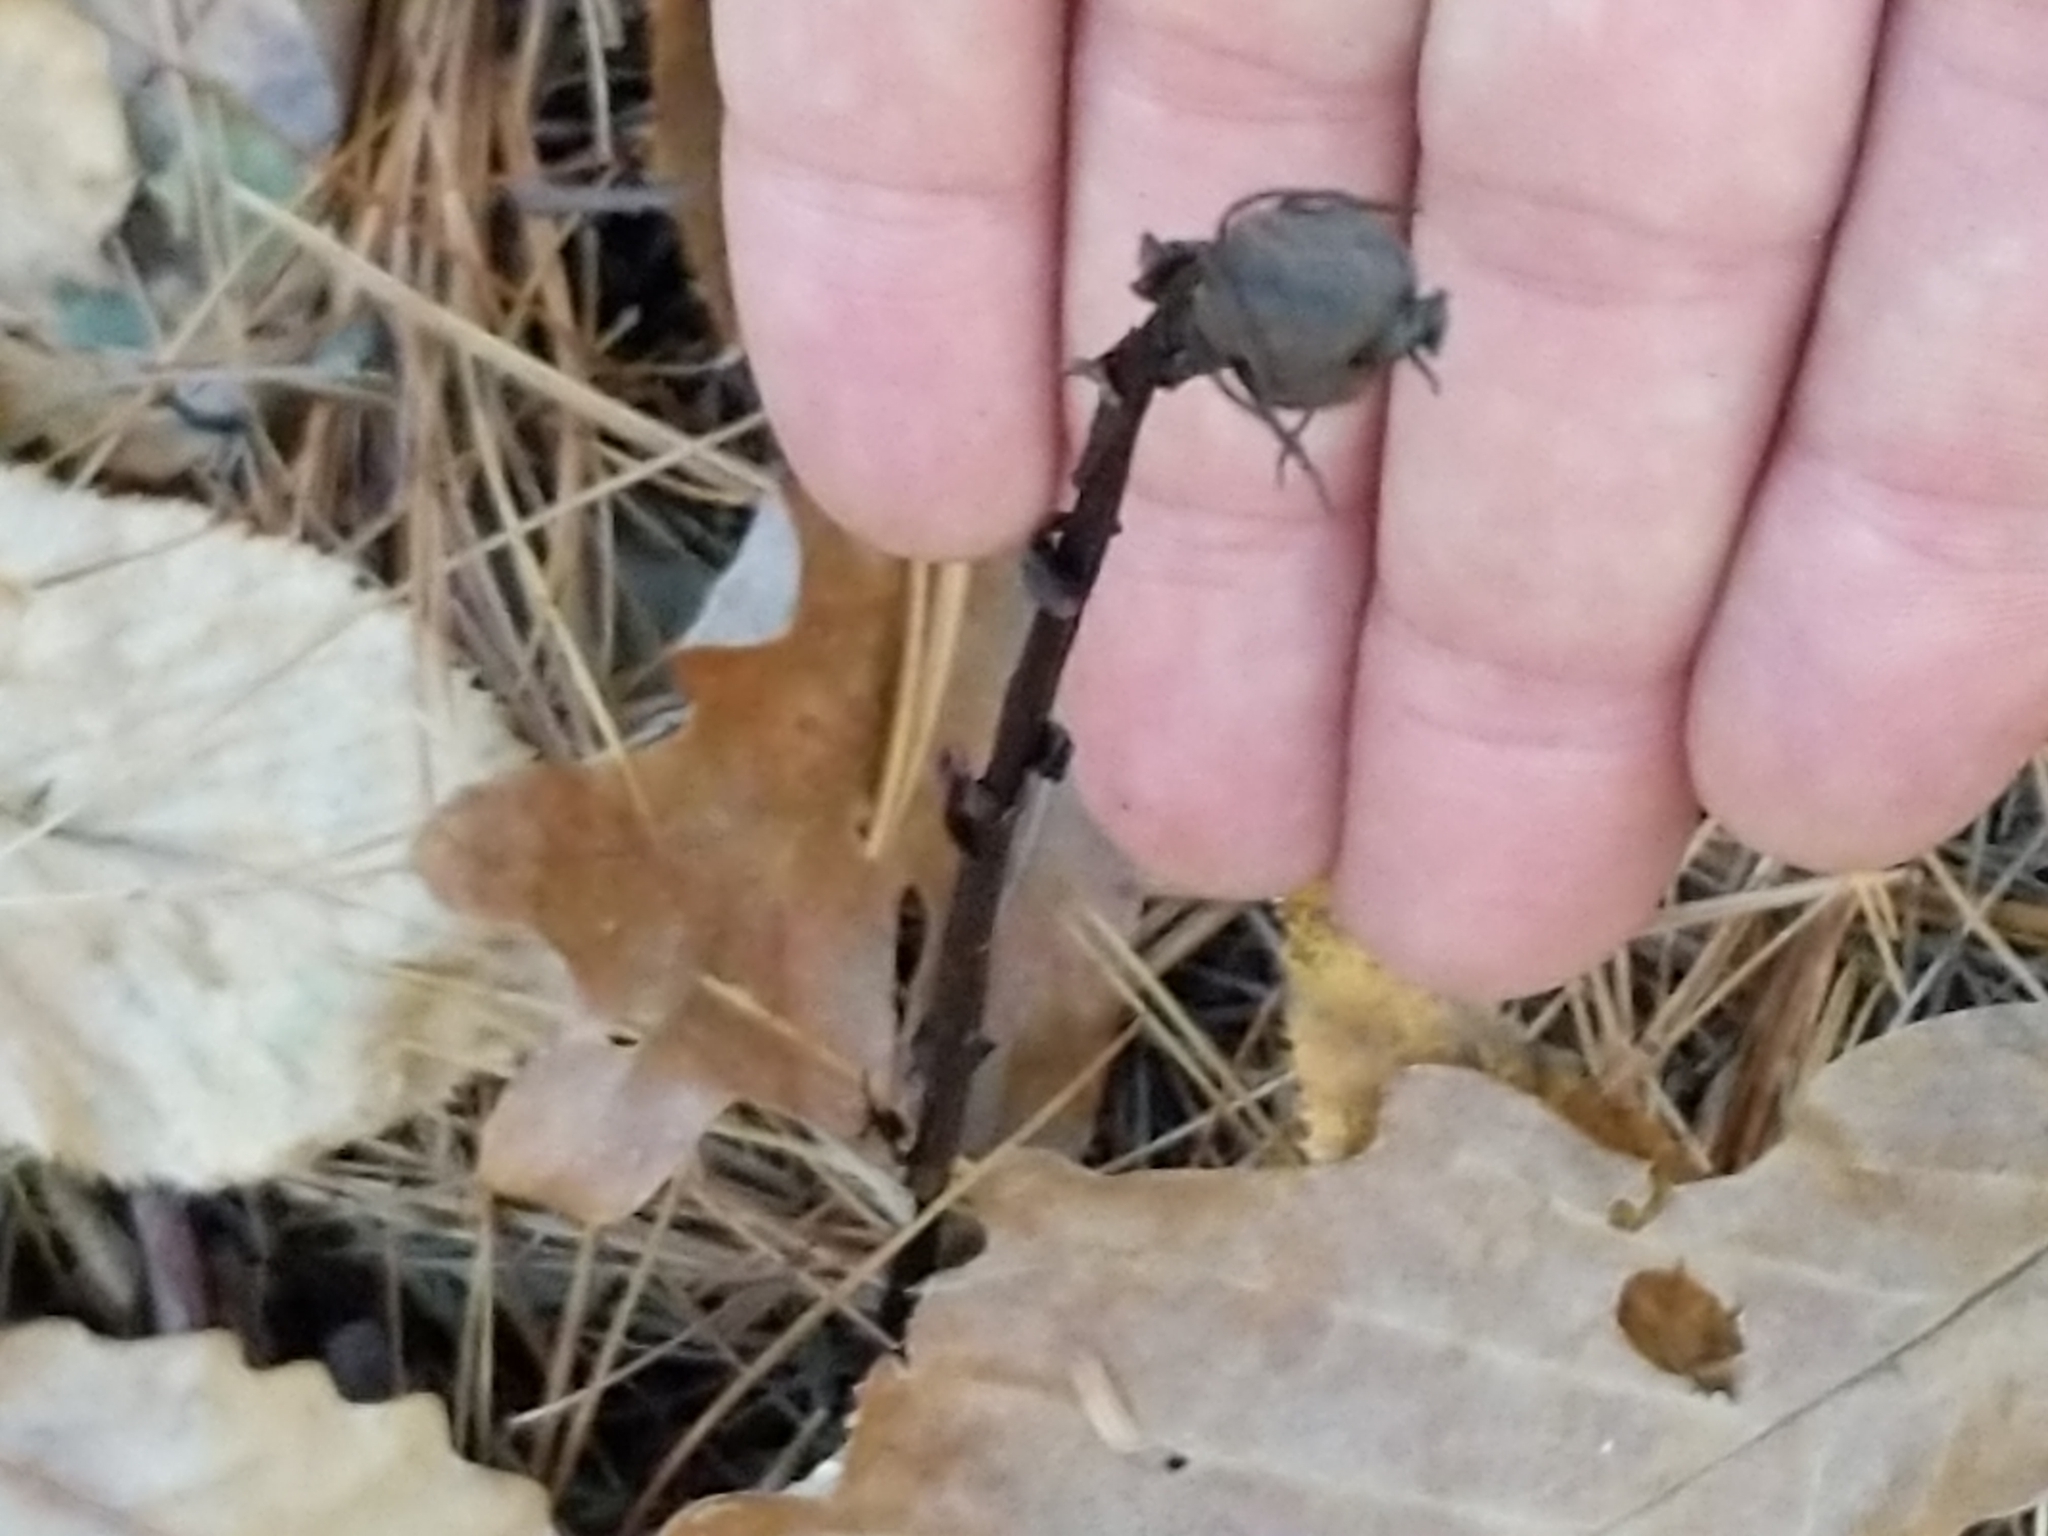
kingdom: Plantae
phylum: Tracheophyta
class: Magnoliopsida
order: Ericales
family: Ericaceae
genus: Monotropa
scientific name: Monotropa uniflora
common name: Convulsion root
